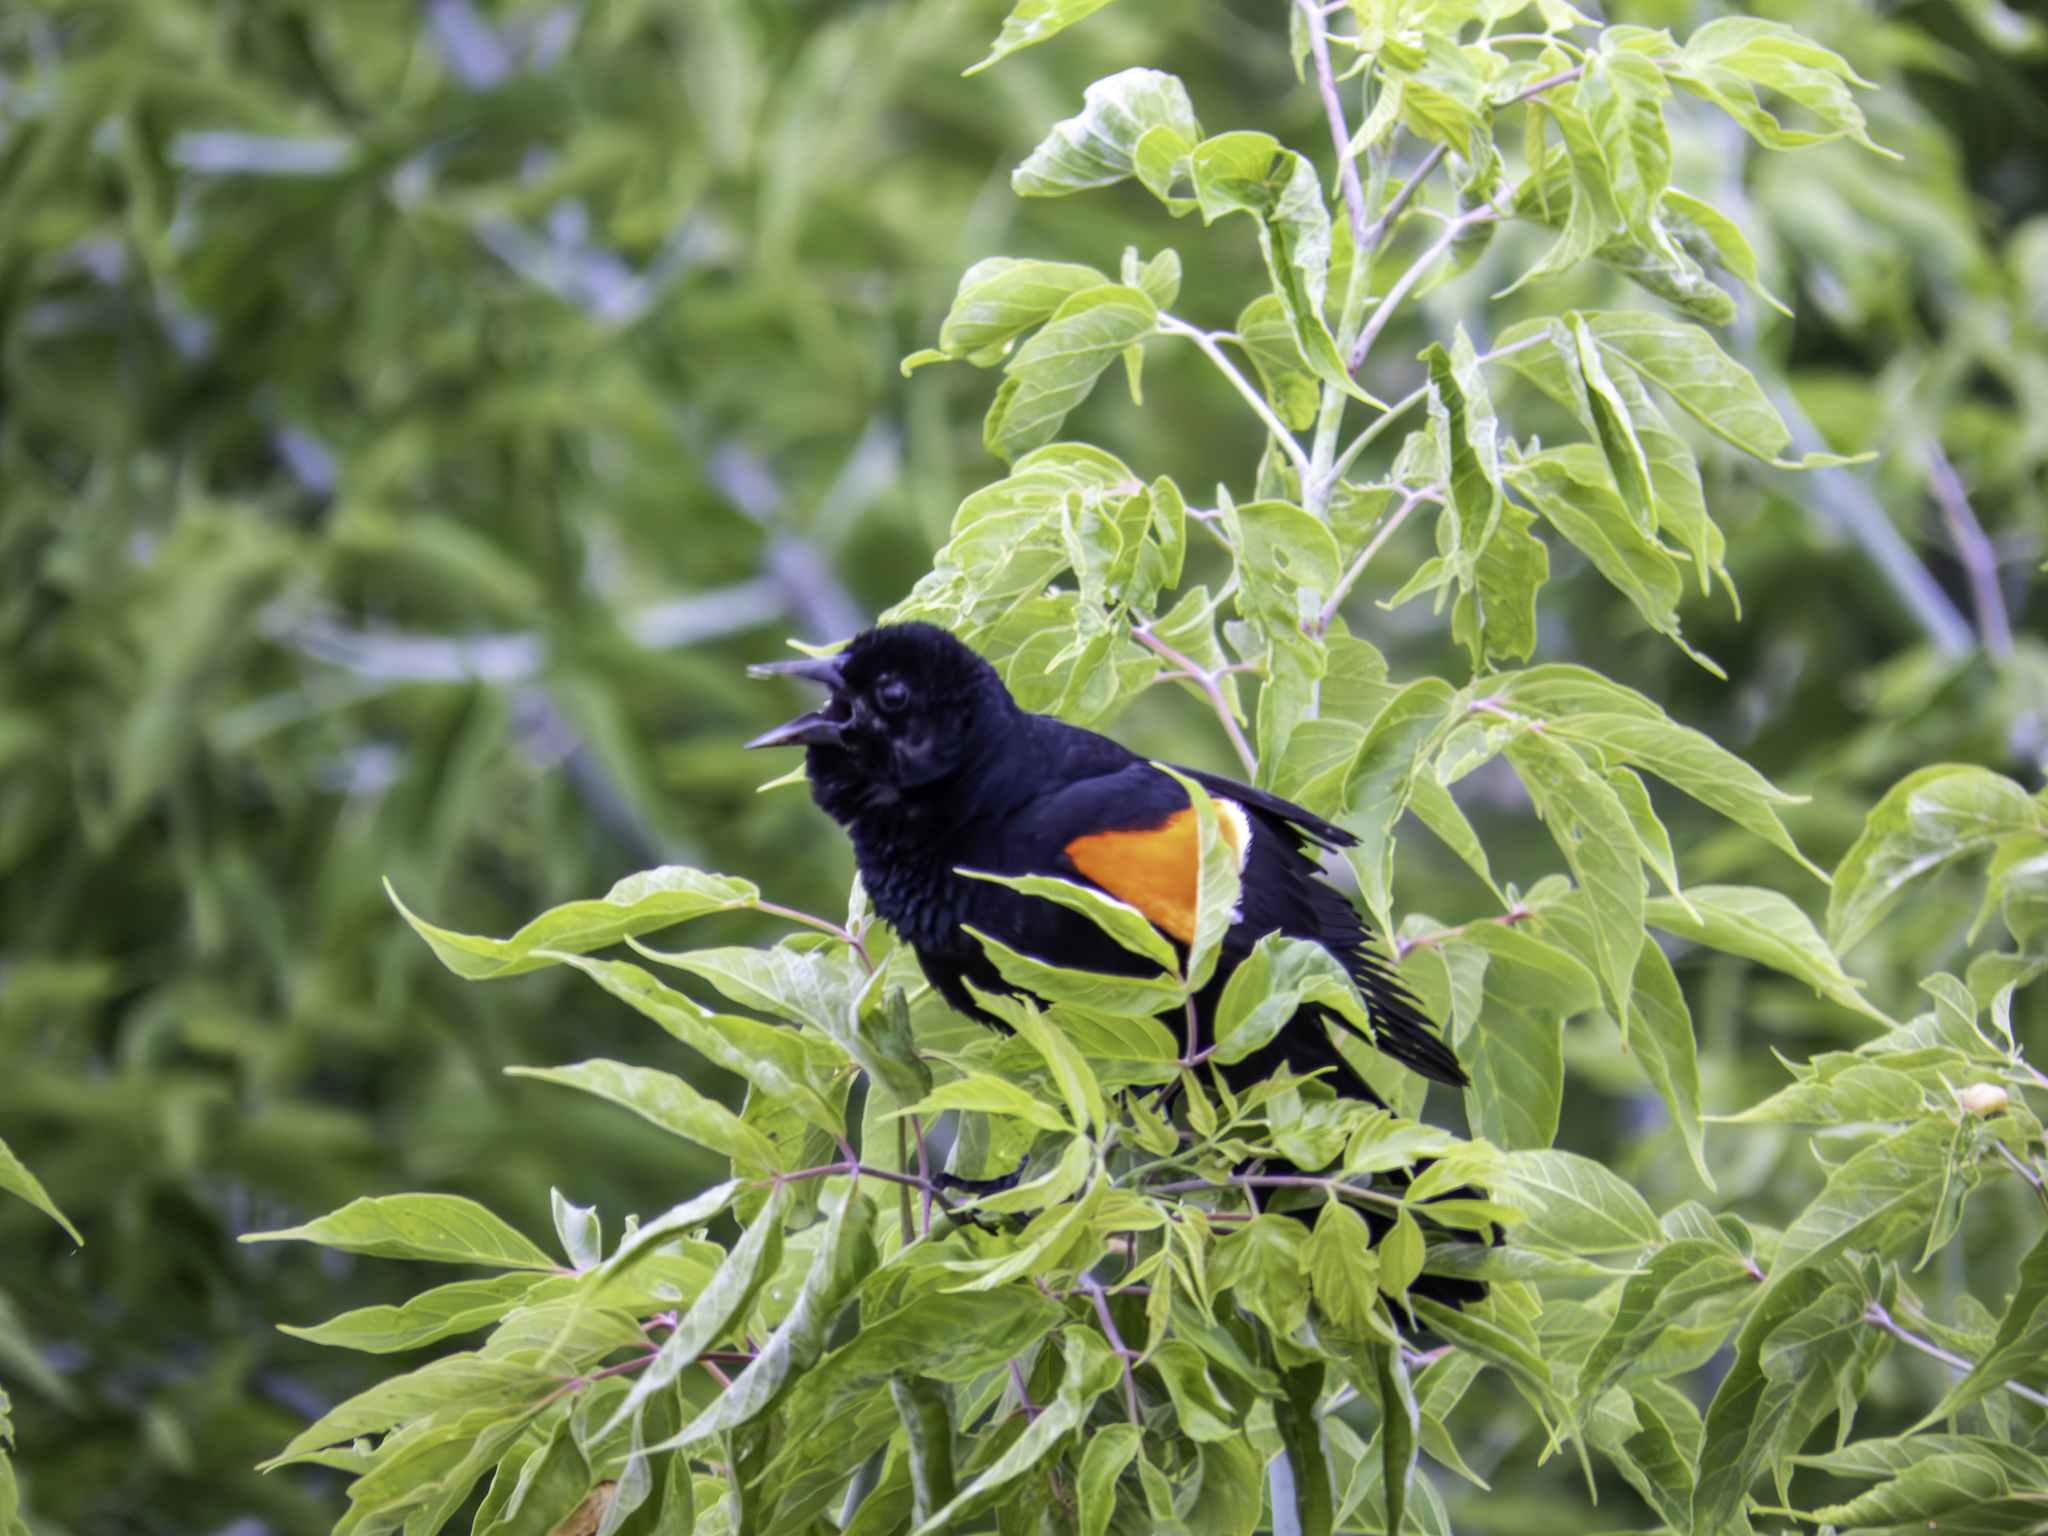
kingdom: Animalia
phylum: Chordata
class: Aves
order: Passeriformes
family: Icteridae
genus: Agelaius
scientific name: Agelaius phoeniceus
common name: Red-winged blackbird
